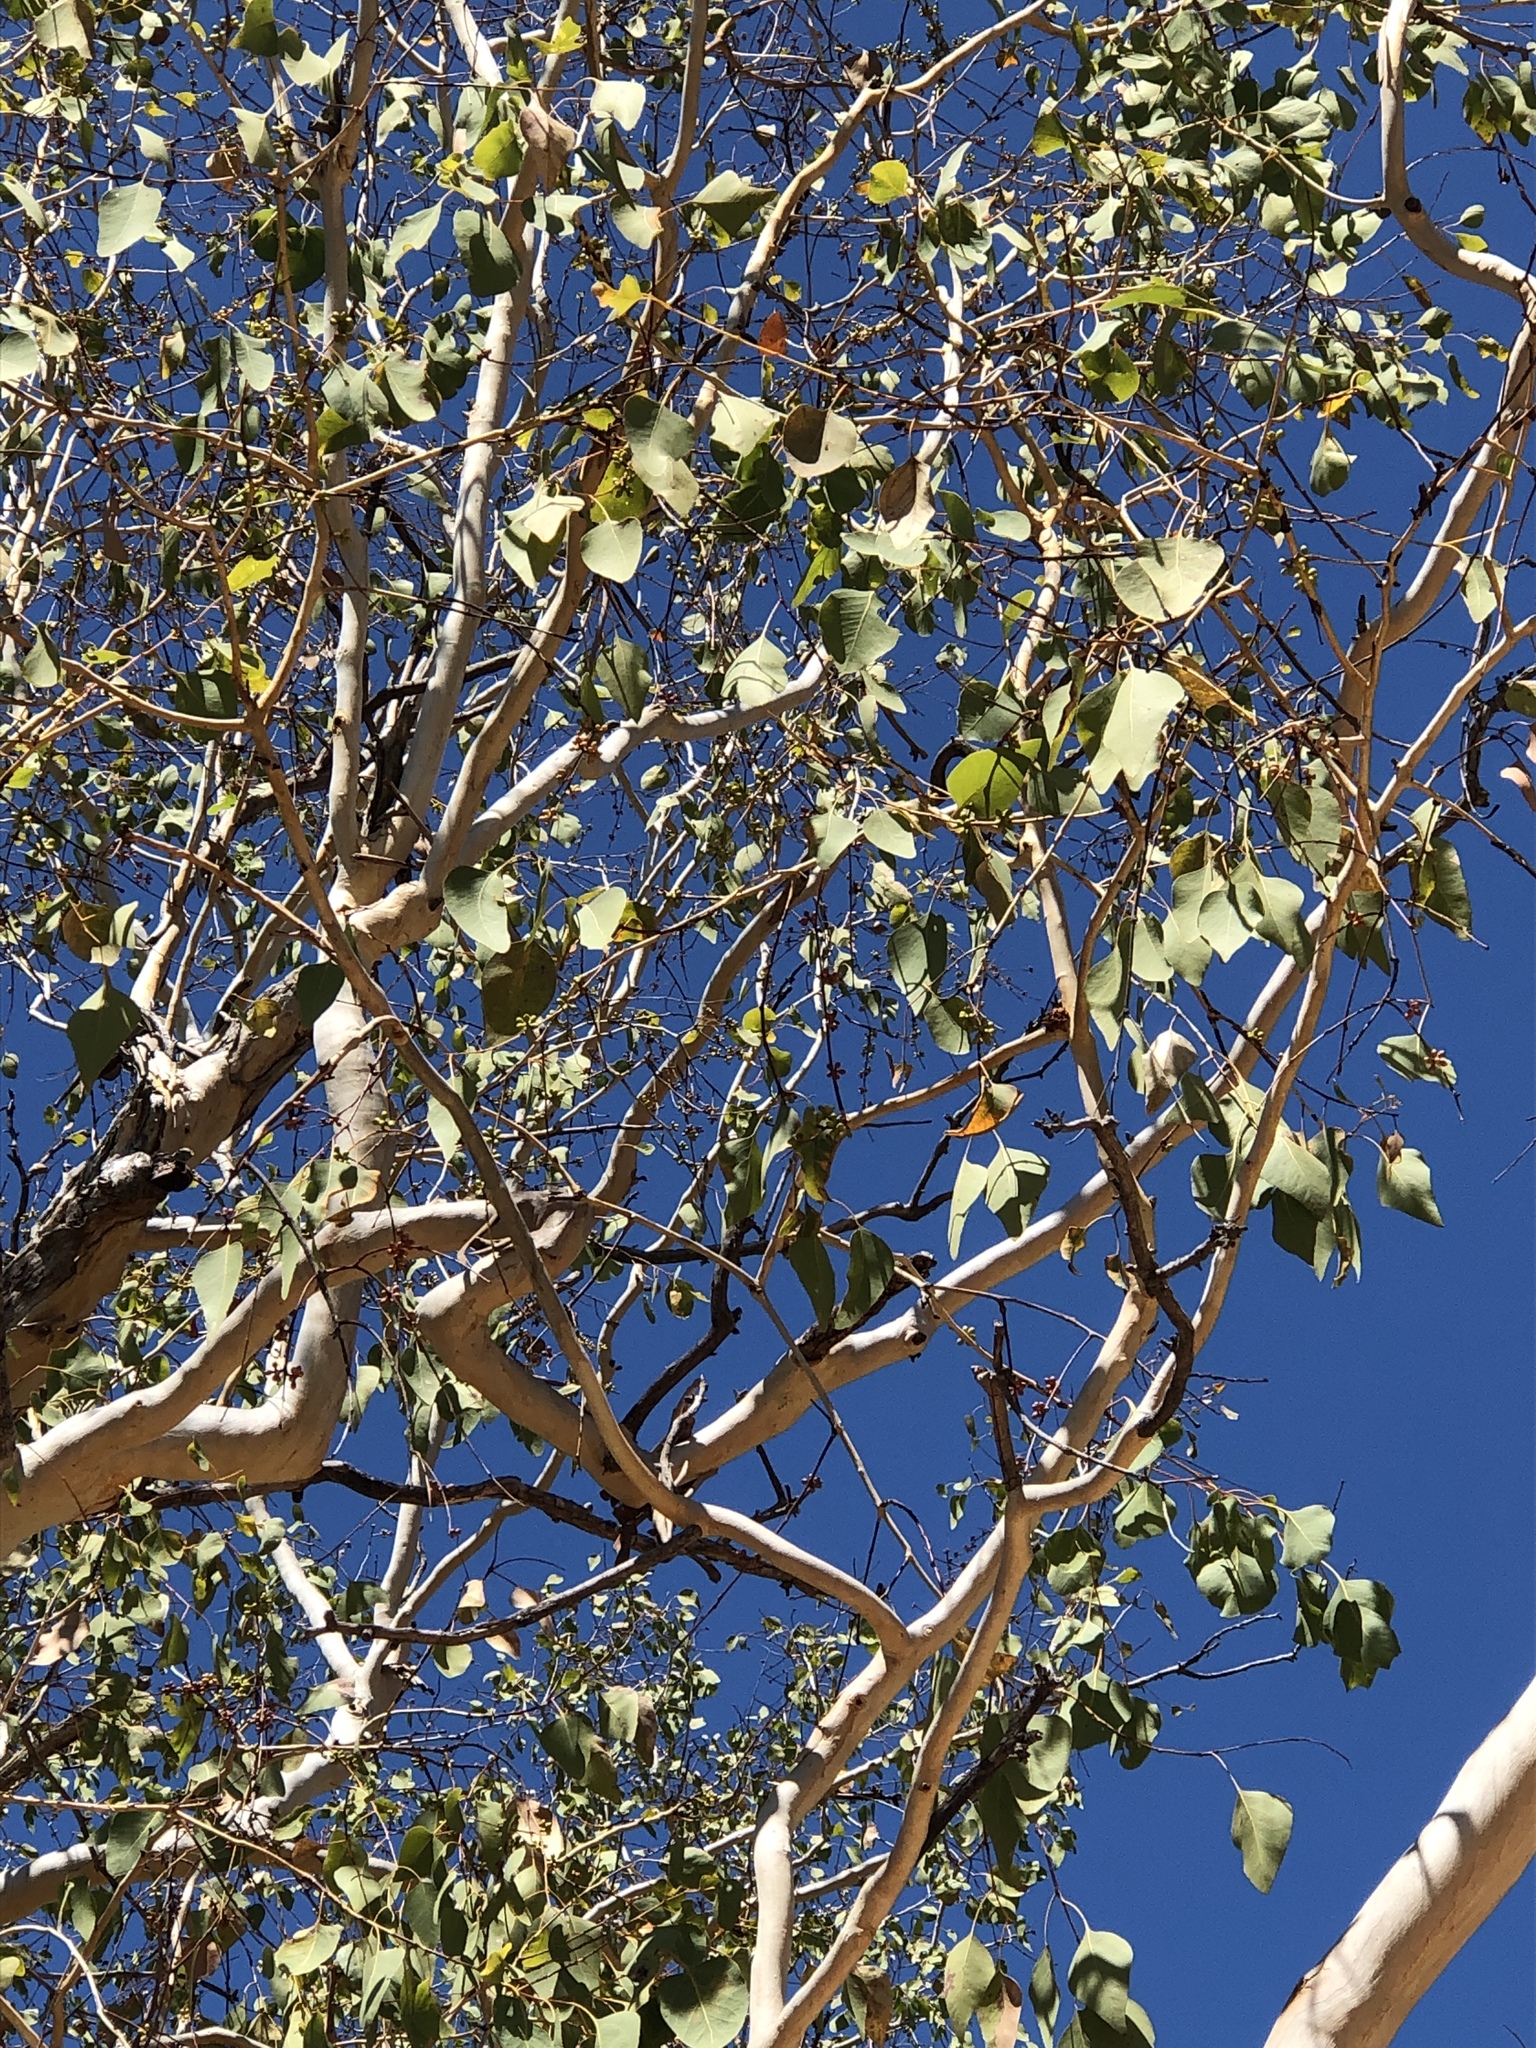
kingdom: Plantae
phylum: Tracheophyta
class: Magnoliopsida
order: Myrtales
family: Myrtaceae
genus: Eucalyptus
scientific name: Eucalyptus platyphylla
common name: Poplar-gum
